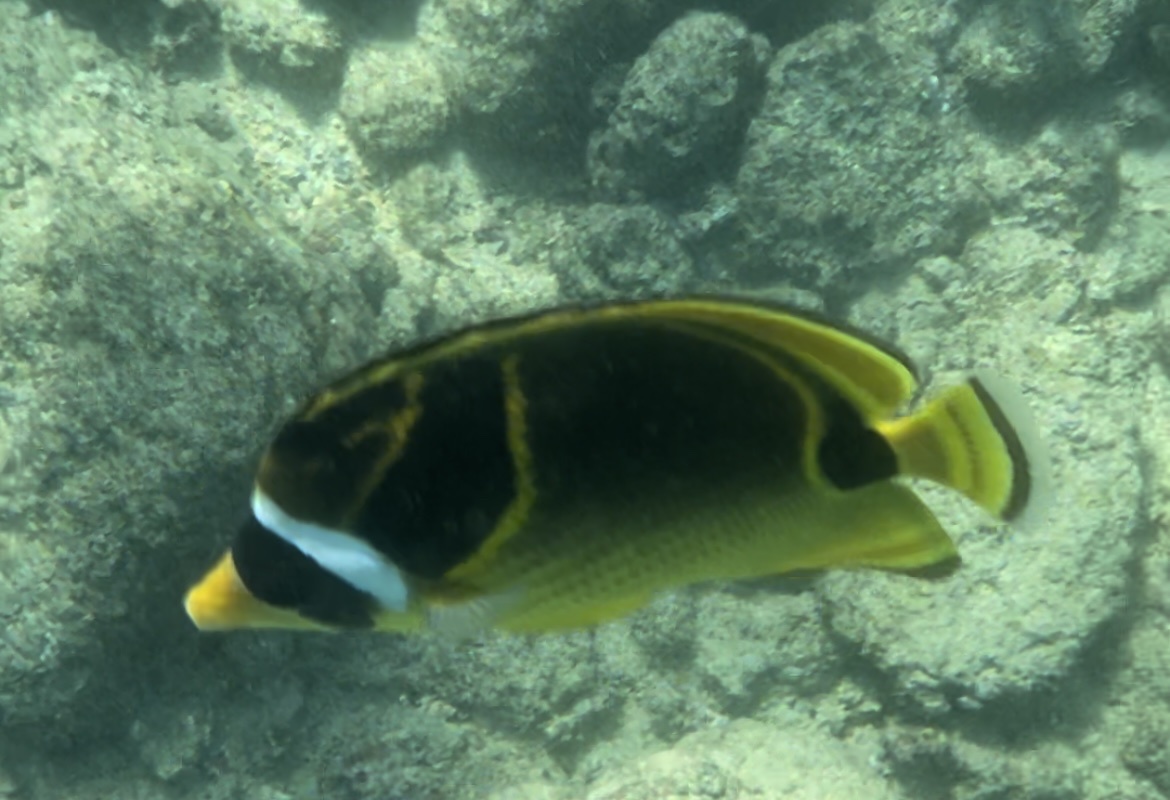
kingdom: Animalia
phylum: Chordata
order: Perciformes
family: Chaetodontidae
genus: Chaetodon
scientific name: Chaetodon lunula
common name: Raccoon butterflyfish
